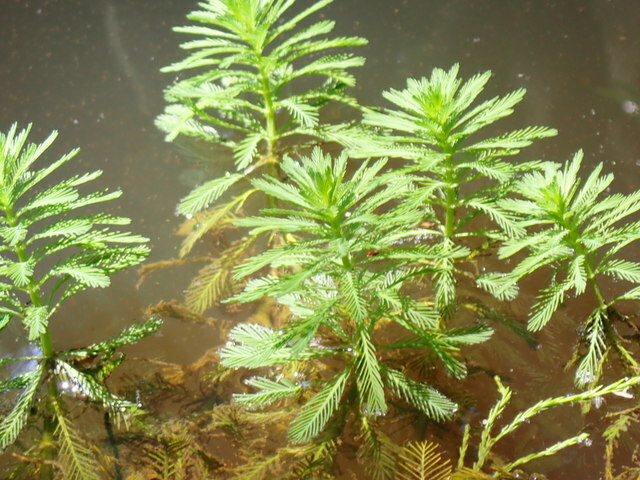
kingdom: Plantae
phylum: Tracheophyta
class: Magnoliopsida
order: Saxifragales
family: Haloragaceae
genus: Myriophyllum
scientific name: Myriophyllum aquaticum
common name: Parrot's feather
